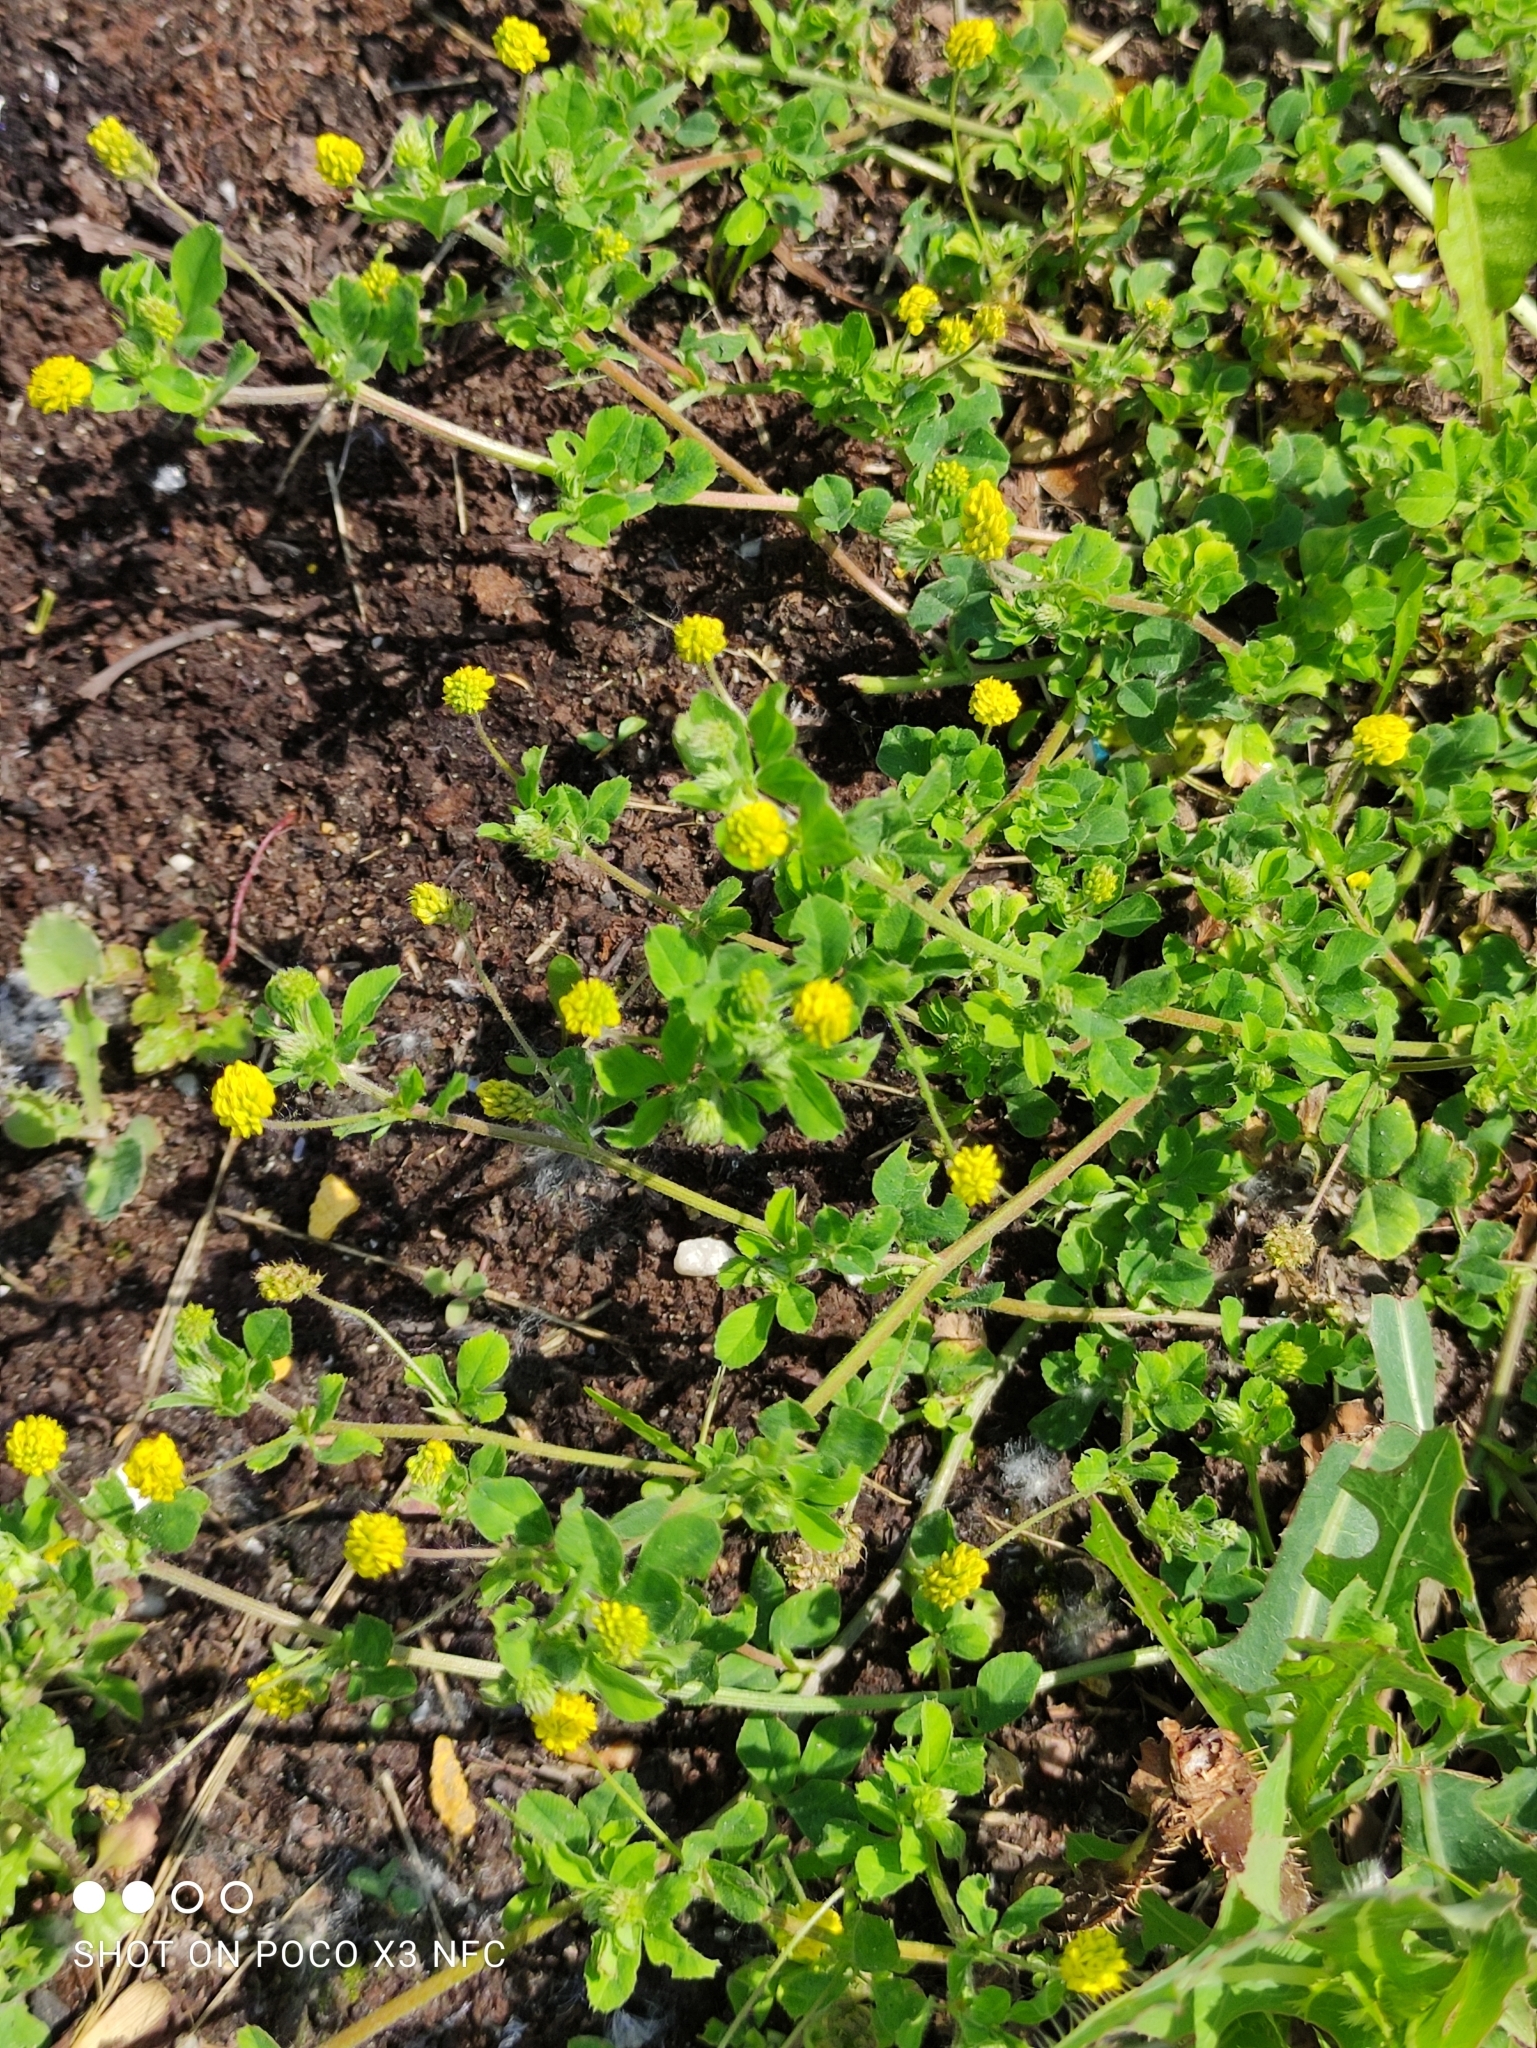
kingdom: Plantae
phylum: Tracheophyta
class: Magnoliopsida
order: Fabales
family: Fabaceae
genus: Medicago
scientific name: Medicago lupulina
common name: Black medick
